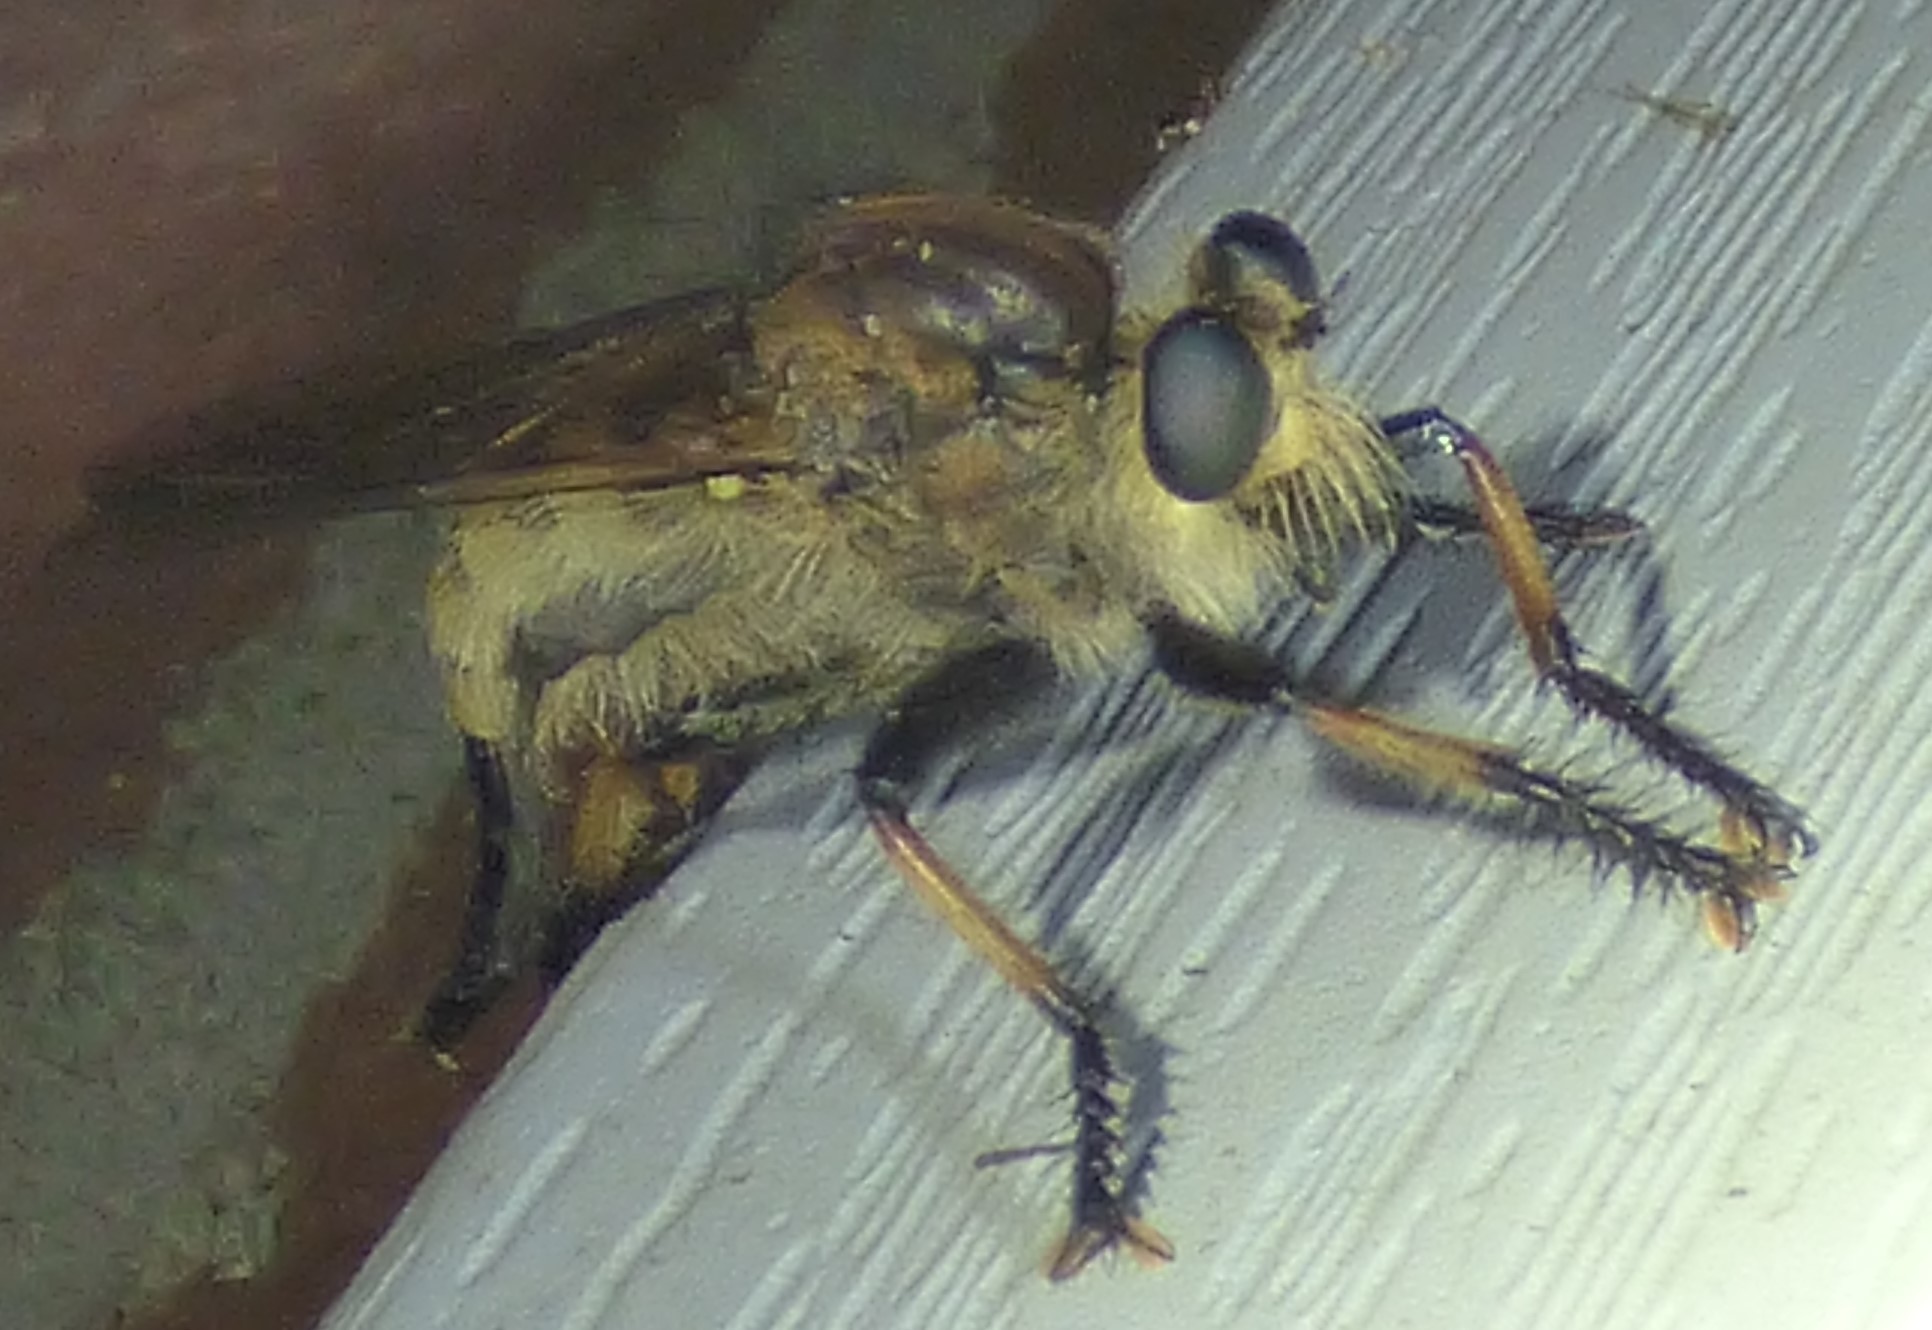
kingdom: Animalia
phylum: Arthropoda
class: Insecta
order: Diptera
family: Asilidae
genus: Promachus
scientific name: Promachus rufipes
